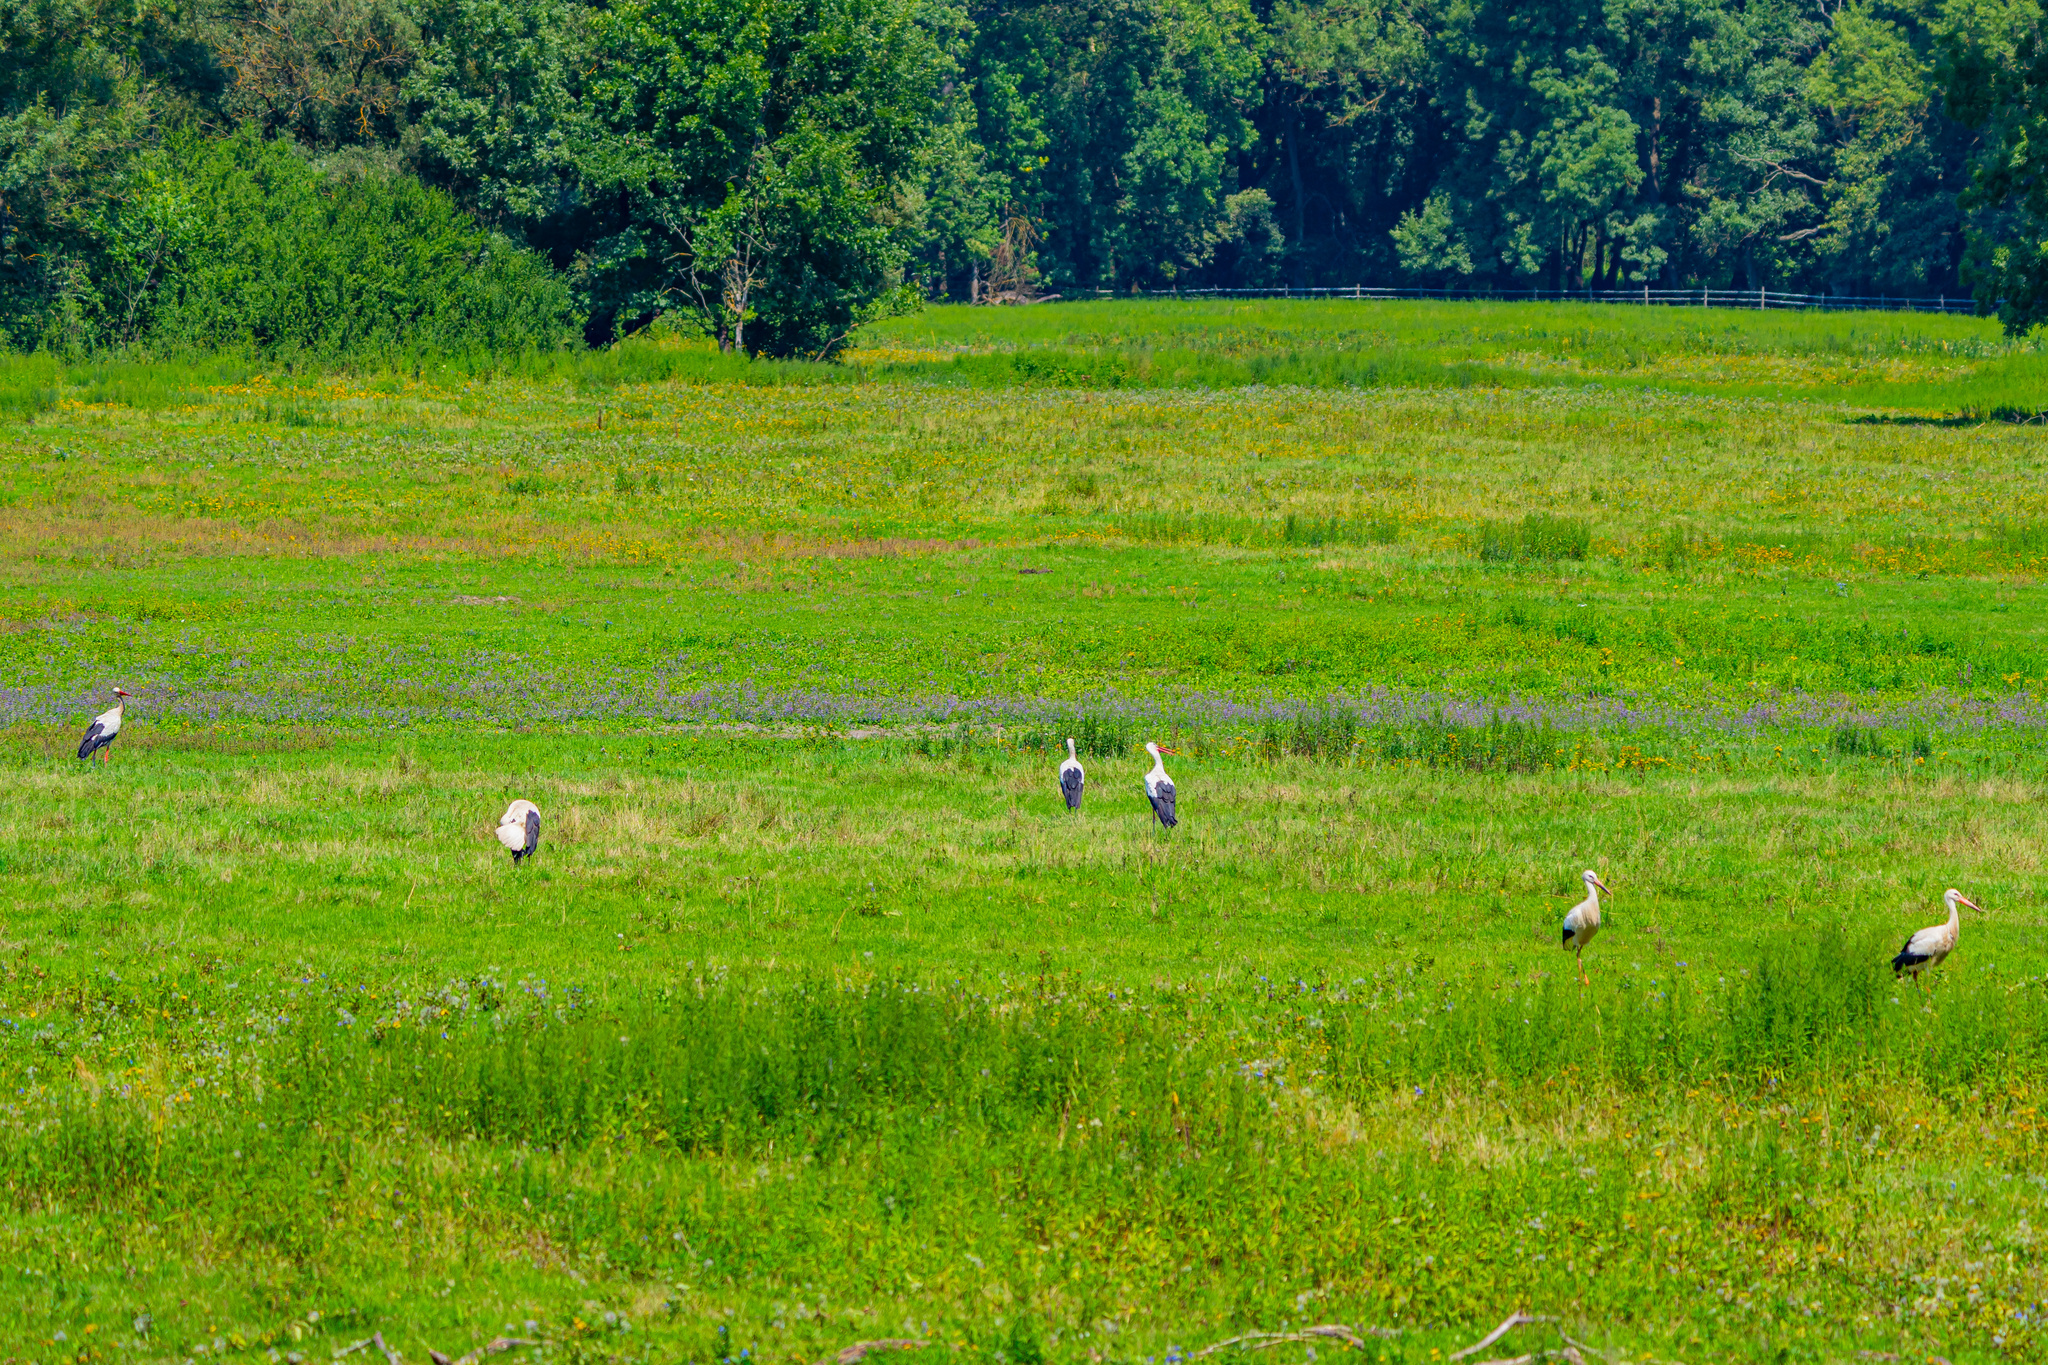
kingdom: Animalia
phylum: Chordata
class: Aves
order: Ciconiiformes
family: Ciconiidae
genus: Ciconia
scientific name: Ciconia ciconia
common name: White stork
